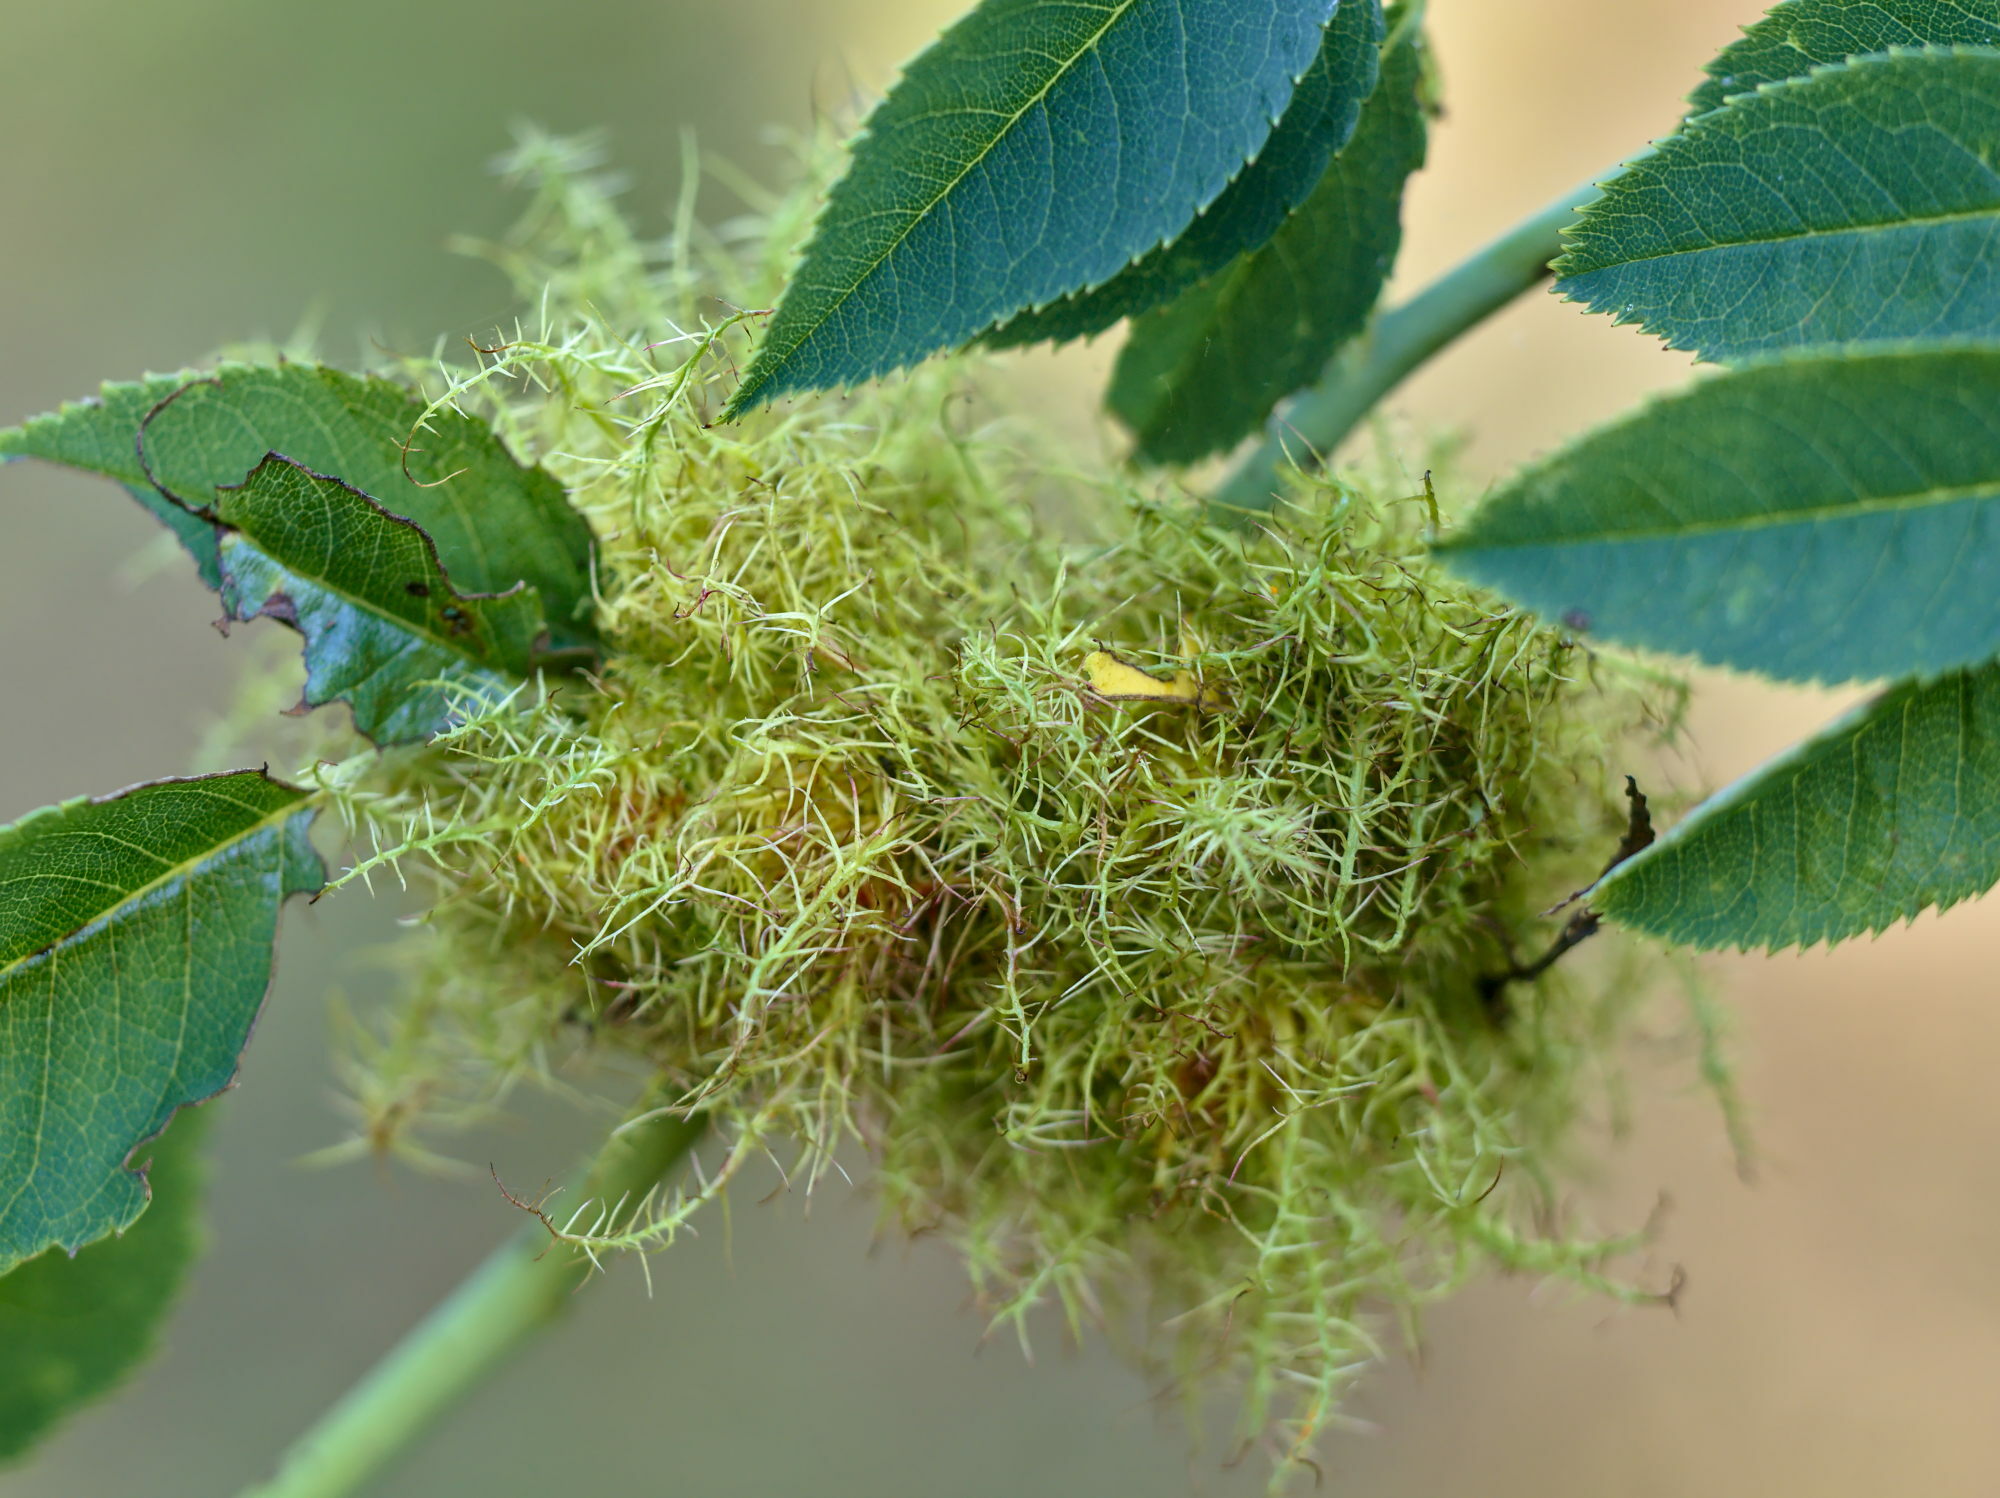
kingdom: Animalia
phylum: Arthropoda
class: Insecta
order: Hymenoptera
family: Cynipidae
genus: Diplolepis
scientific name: Diplolepis rosae
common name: Bedeguar gall
